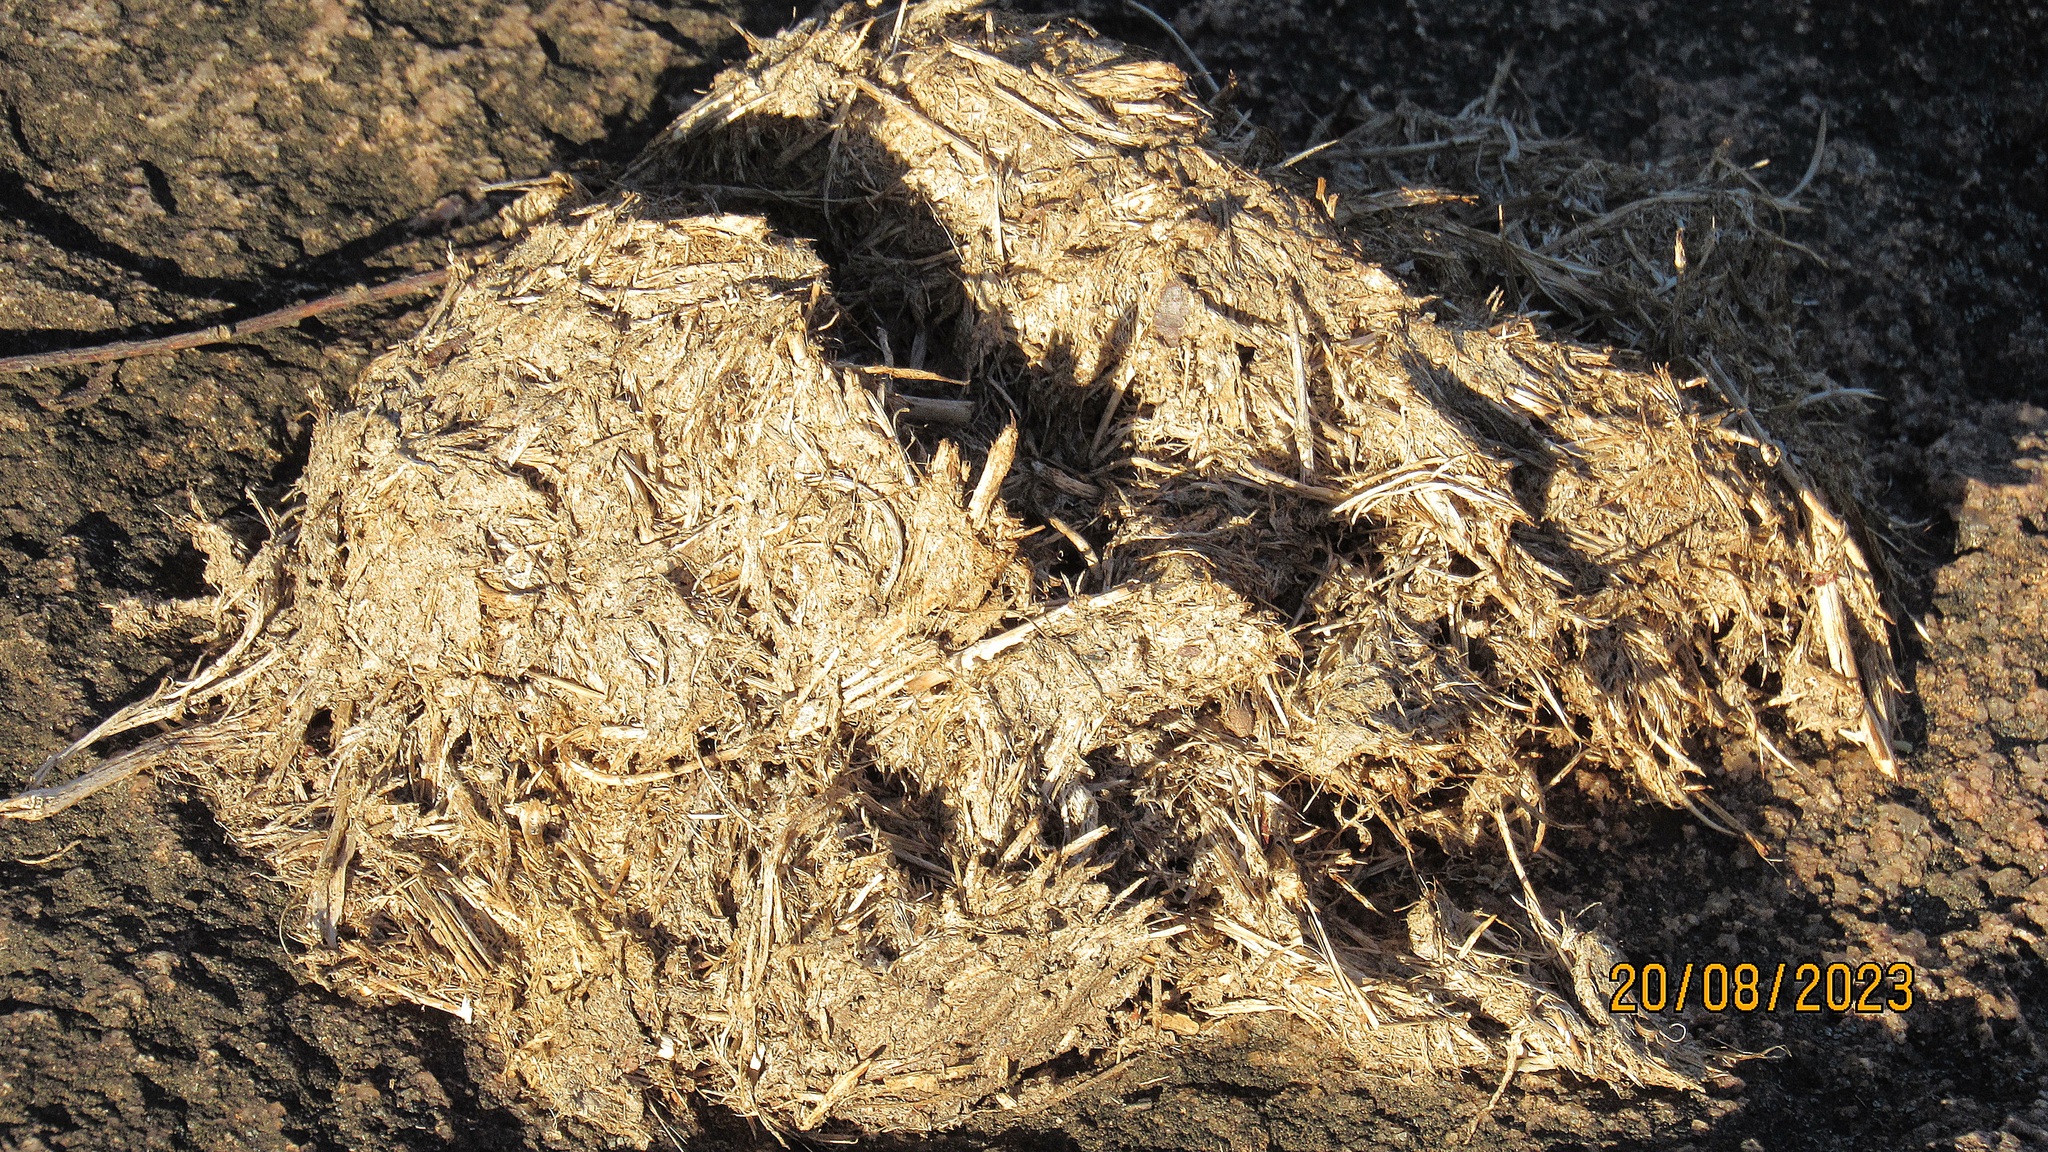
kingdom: Animalia
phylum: Chordata
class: Mammalia
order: Proboscidea
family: Elephantidae
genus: Loxodonta
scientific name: Loxodonta africana
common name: African elephant
